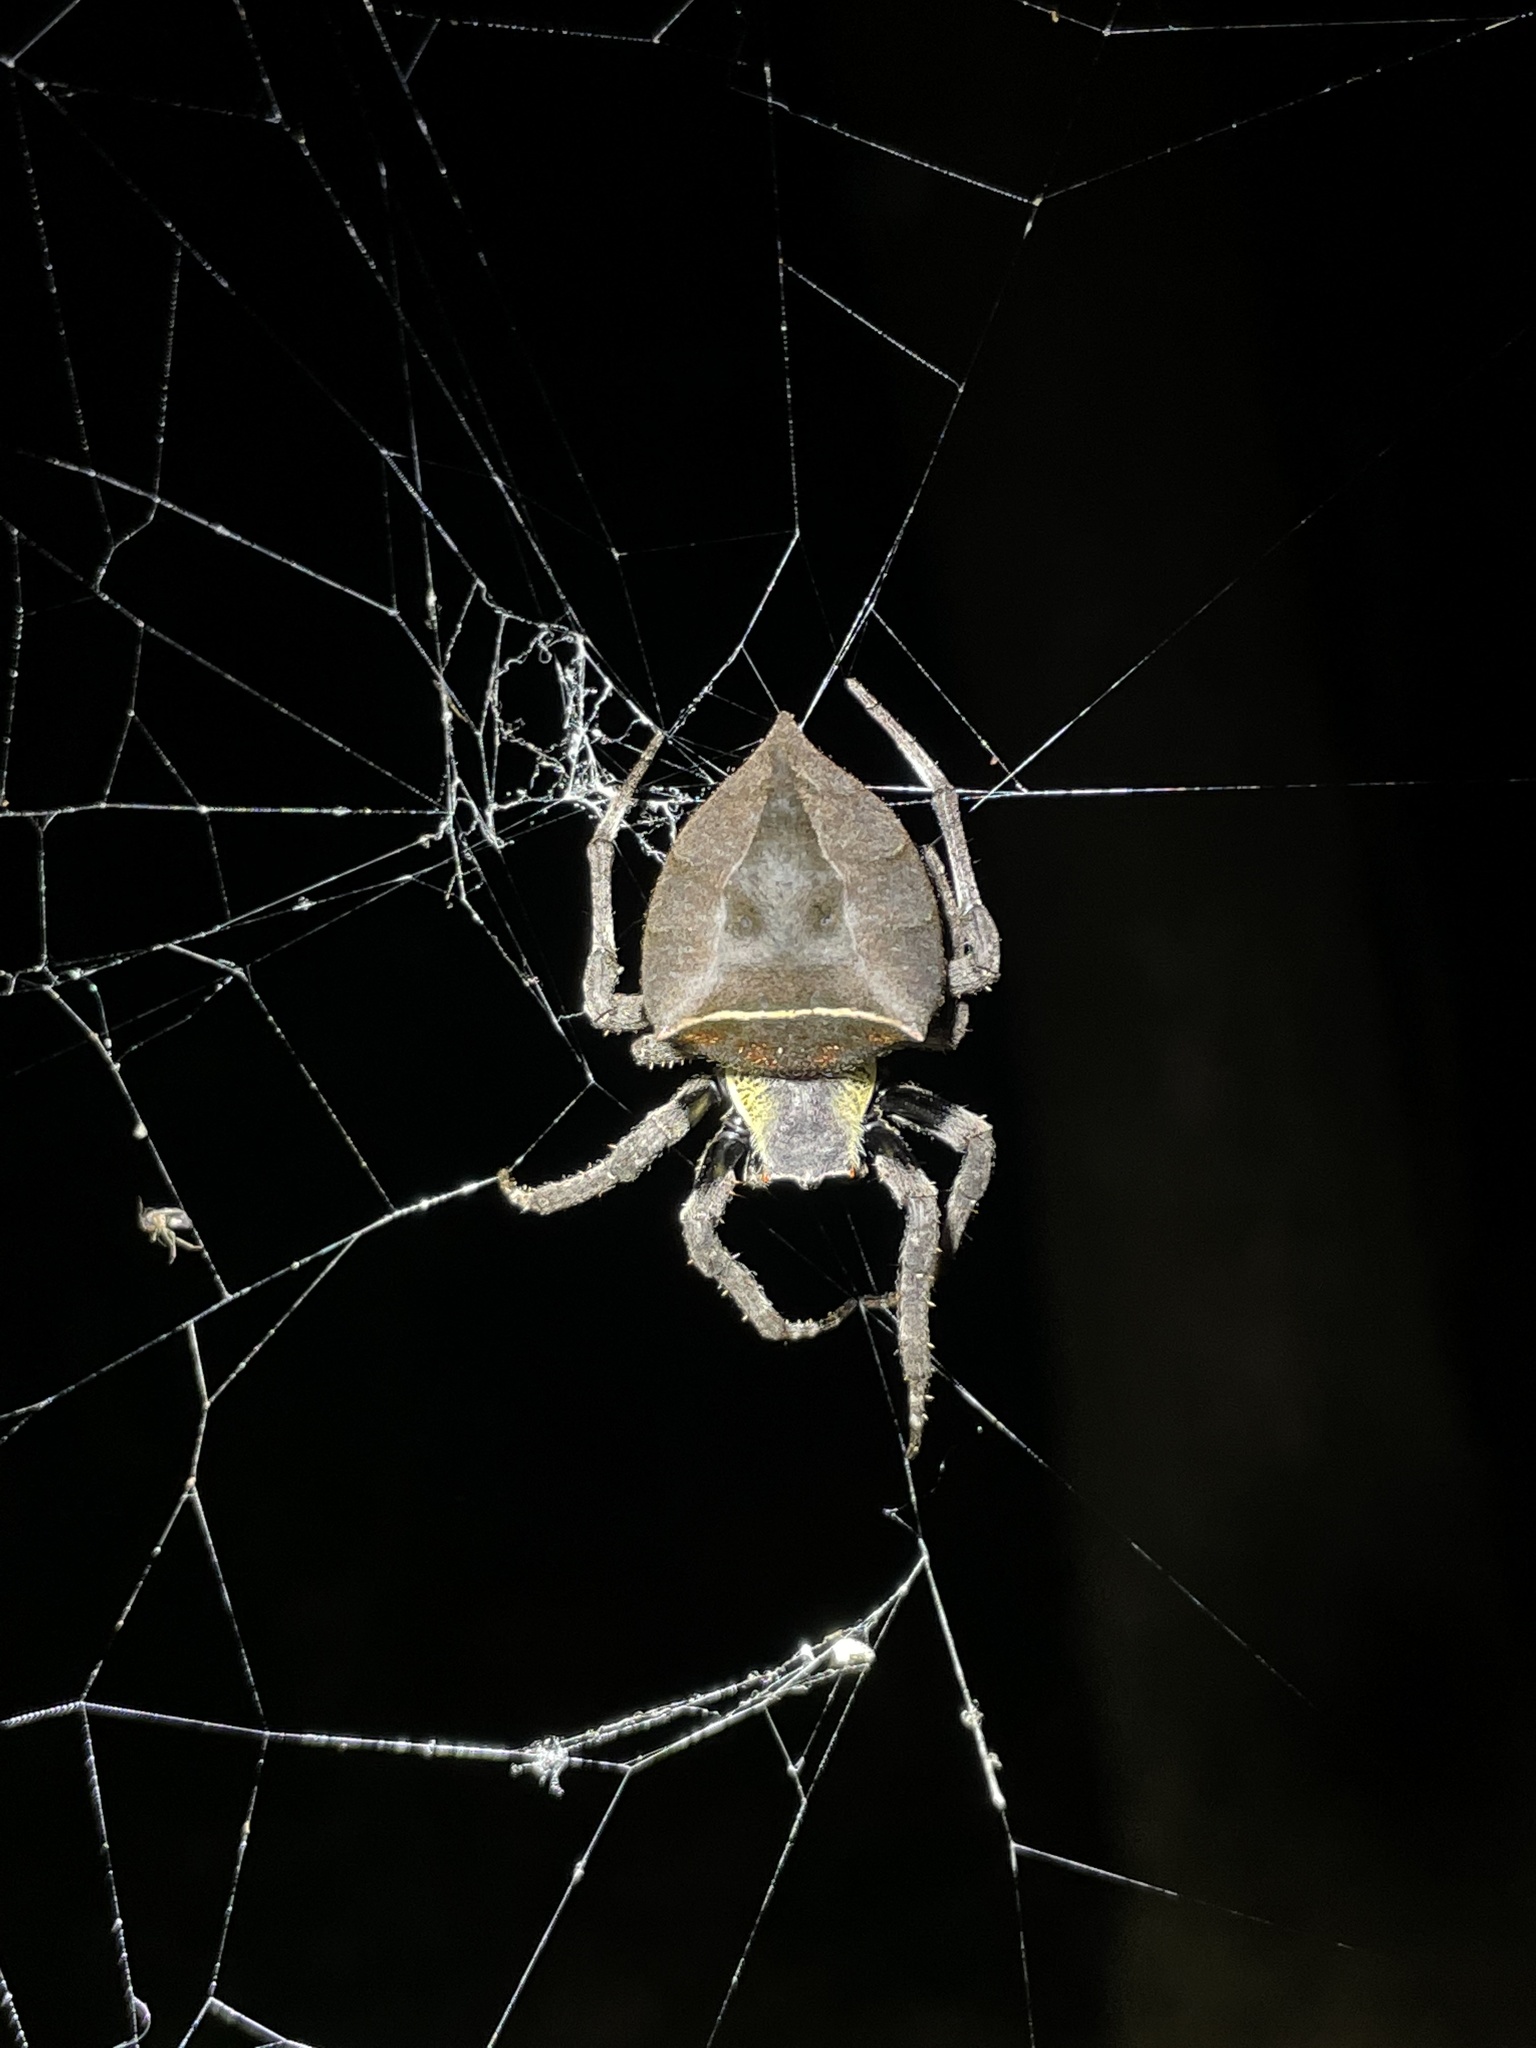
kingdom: Animalia
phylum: Arthropoda
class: Arachnida
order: Araneae
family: Araneidae
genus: Parawixia
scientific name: Parawixia dehaani
